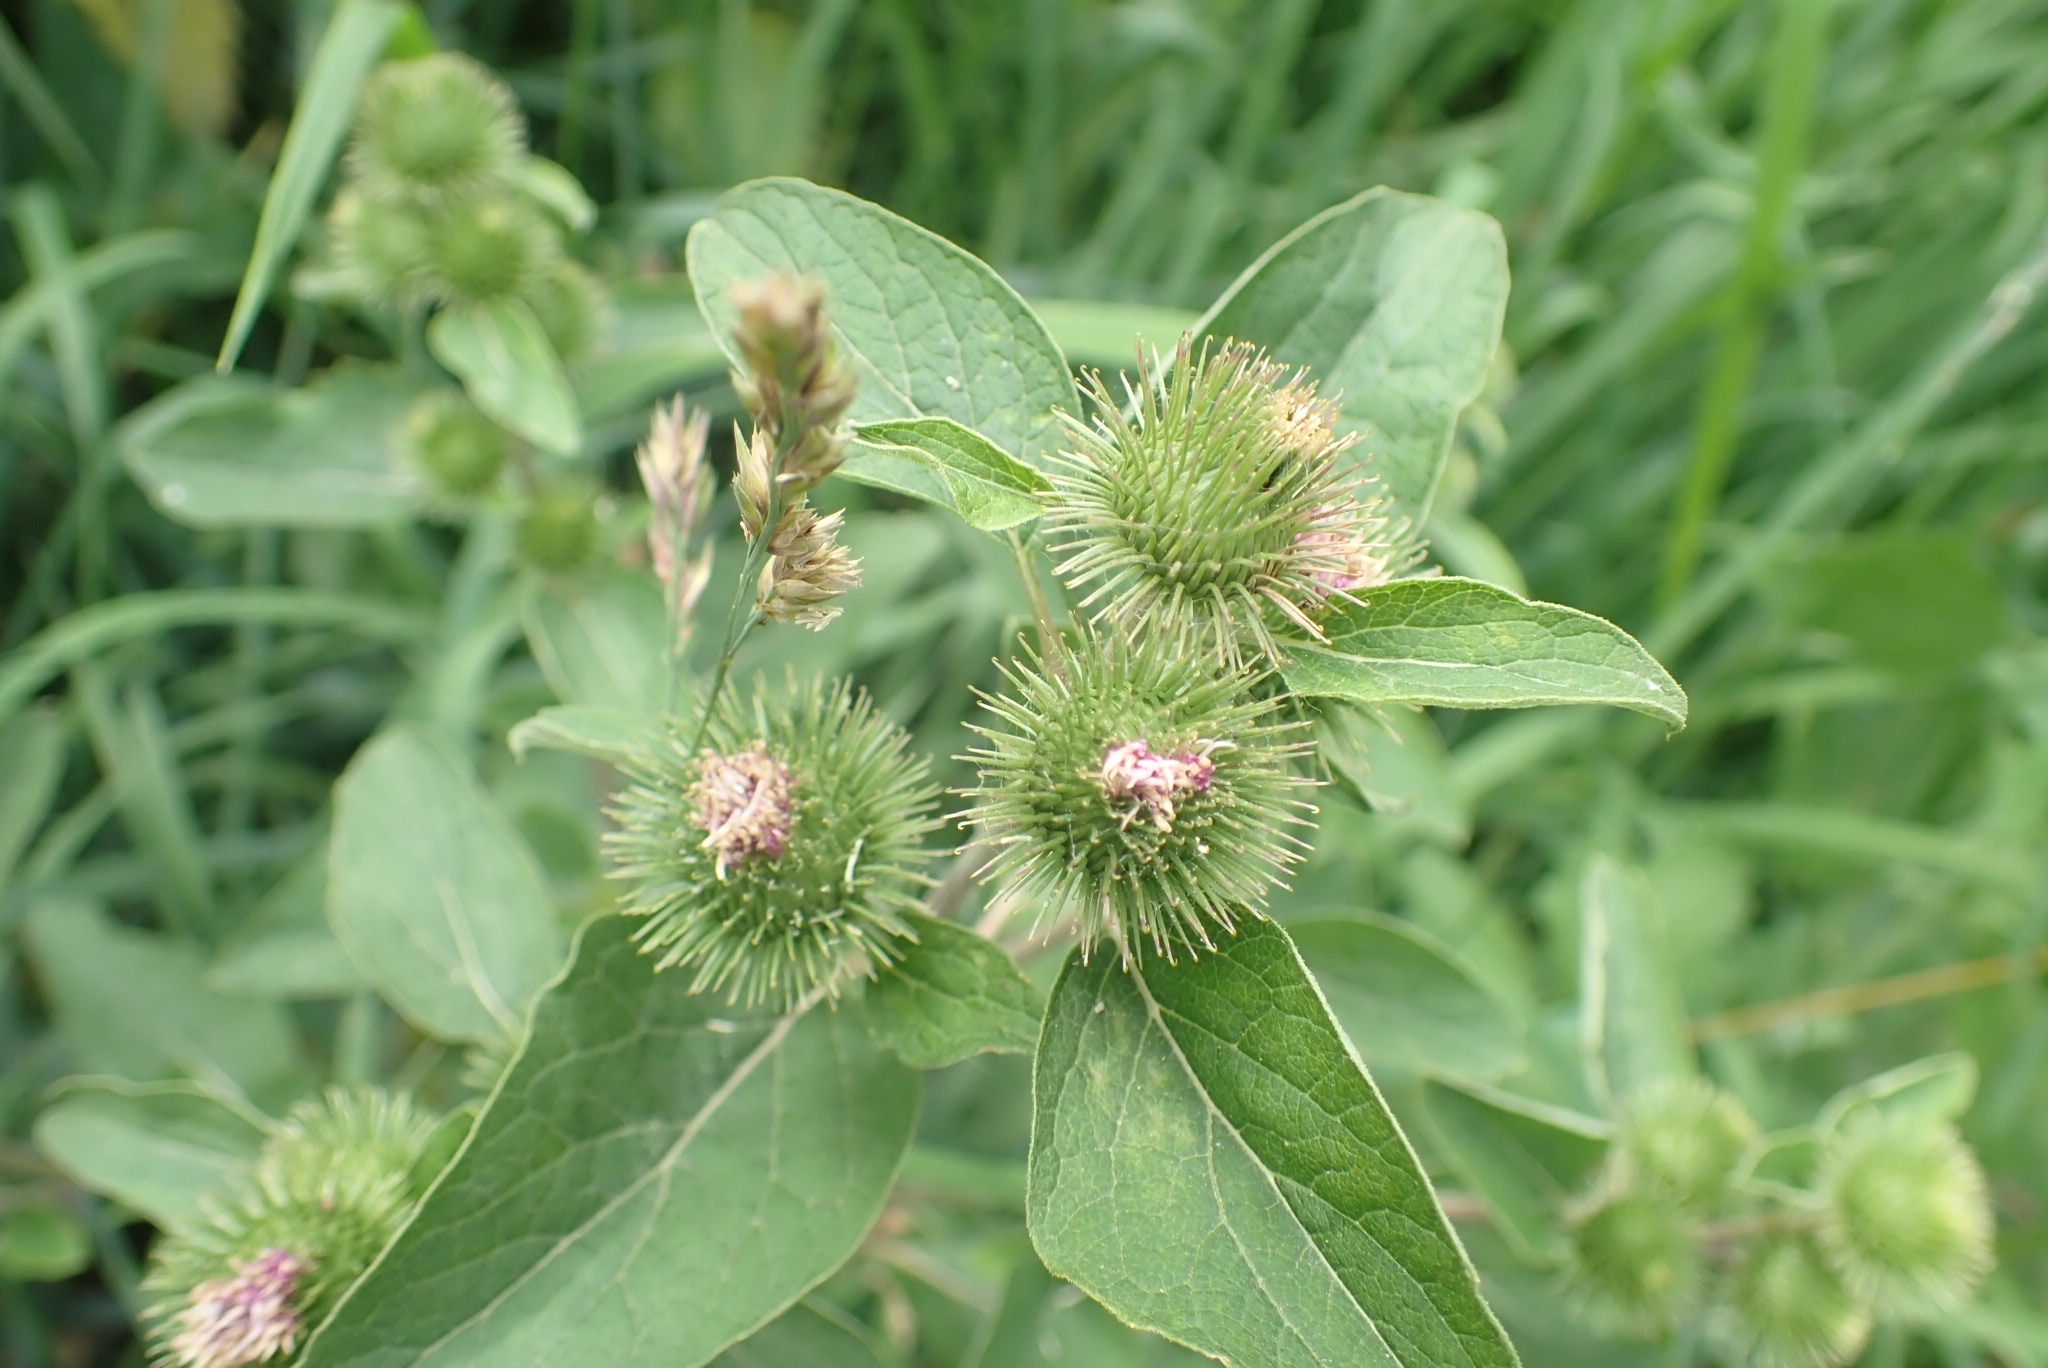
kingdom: Plantae
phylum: Tracheophyta
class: Magnoliopsida
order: Asterales
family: Asteraceae
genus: Arctium
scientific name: Arctium minus
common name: Lesser burdock
